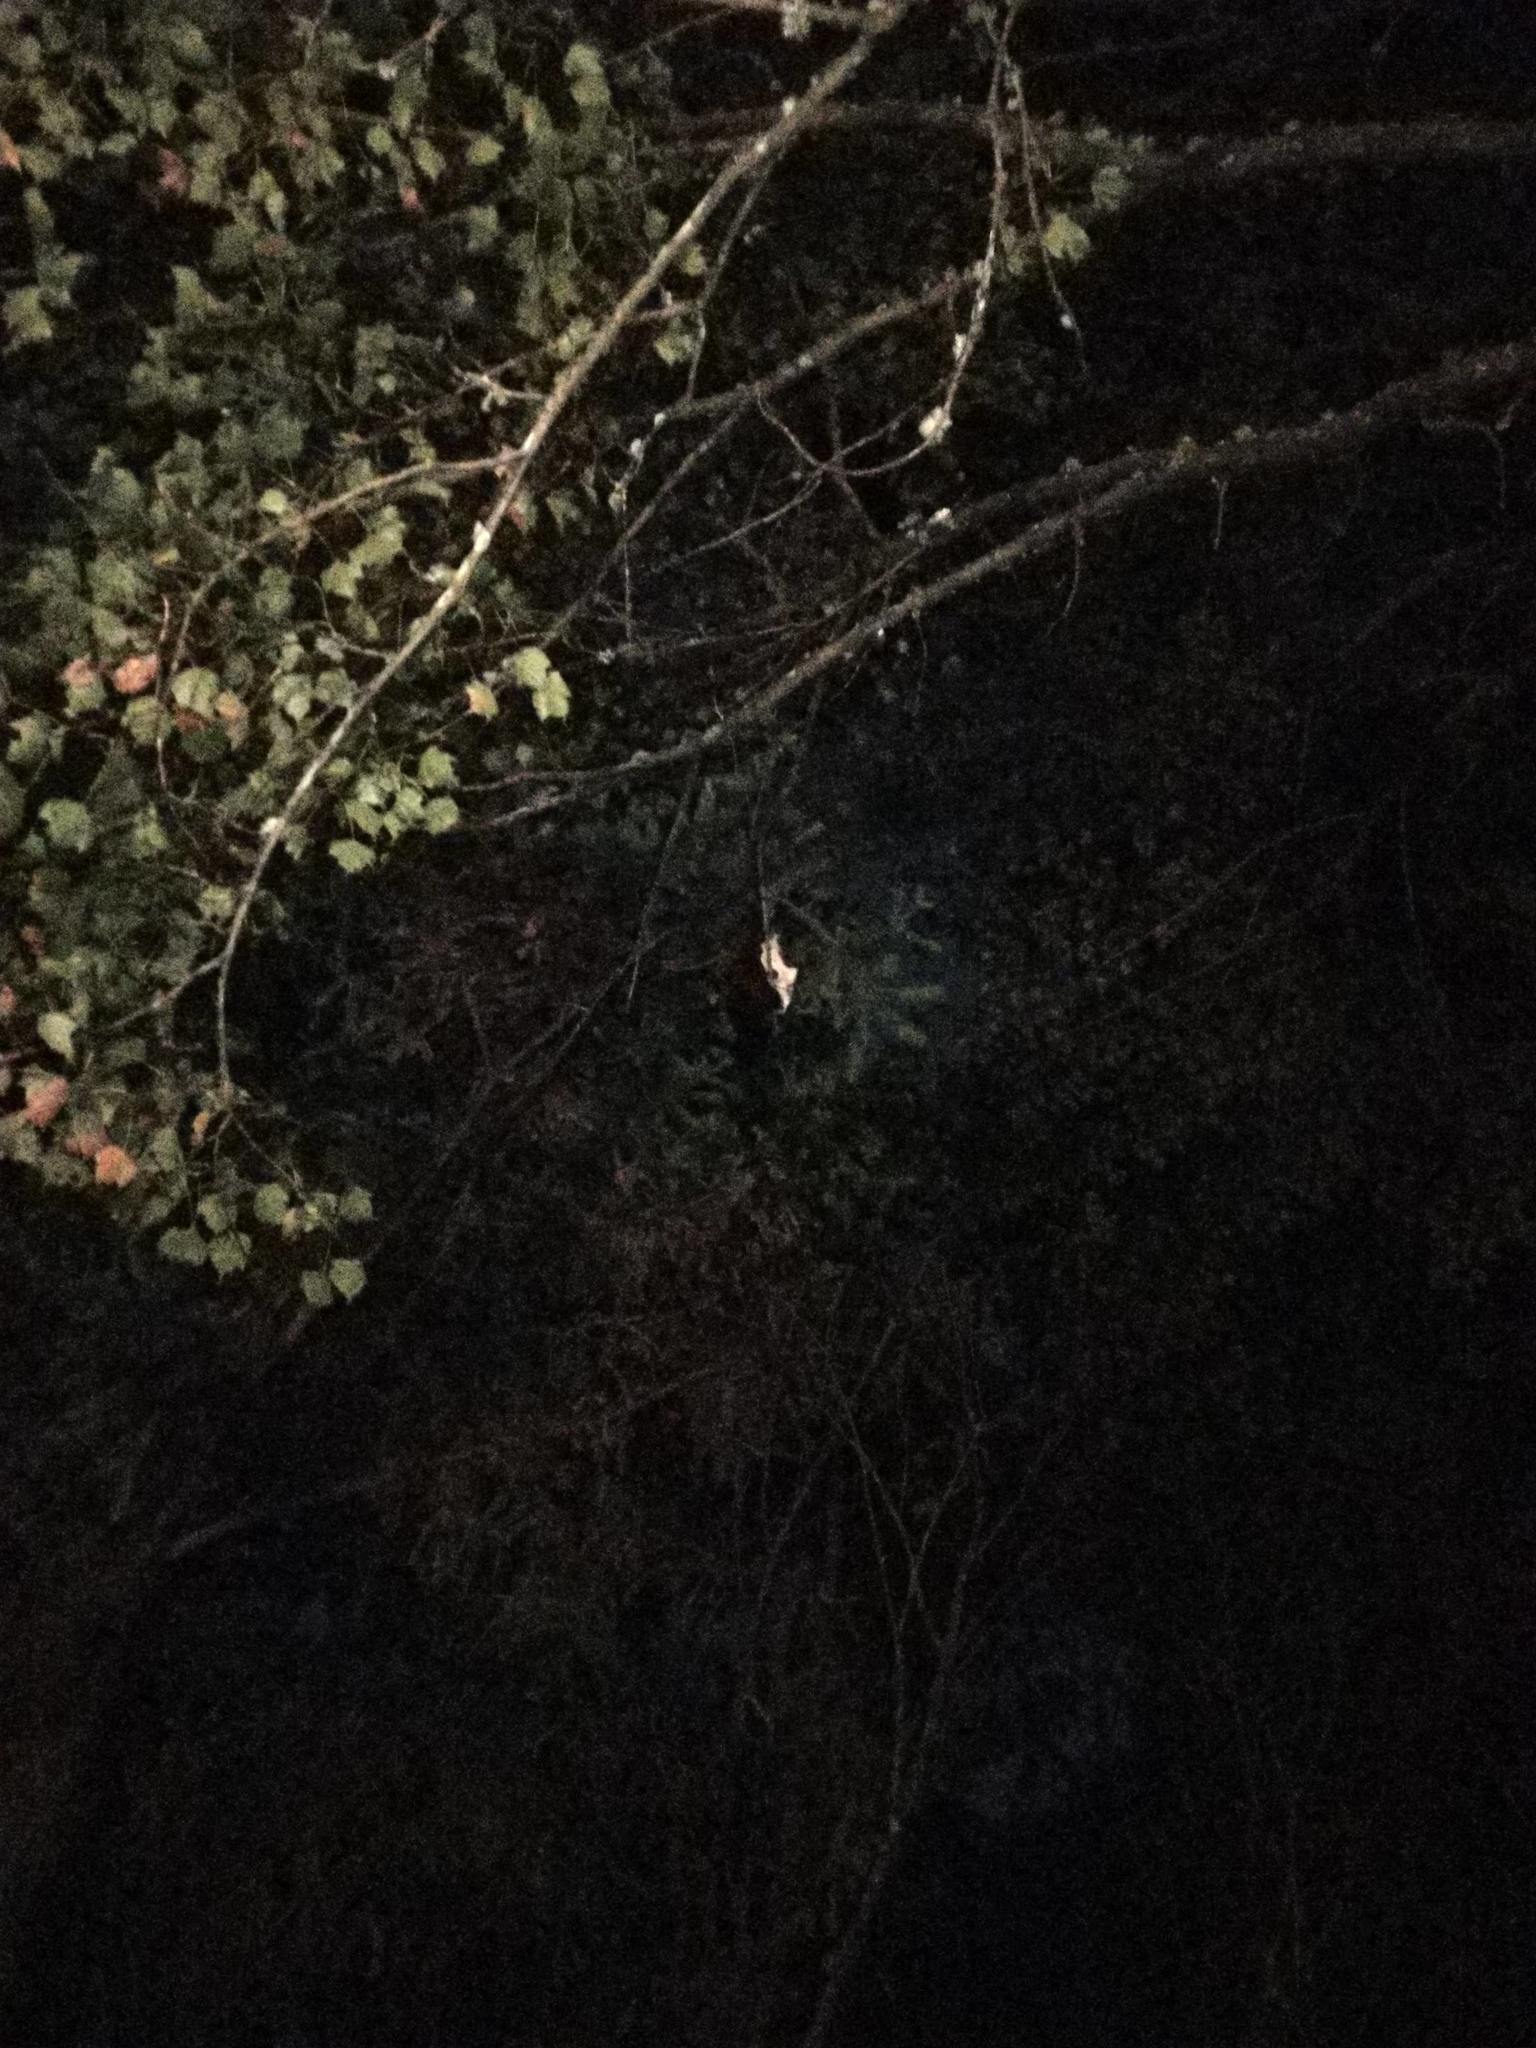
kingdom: Animalia
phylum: Chordata
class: Mammalia
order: Rodentia
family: Sciuridae
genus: Petaurista
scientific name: Petaurista lena
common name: Taiwan giant flying squirrel
